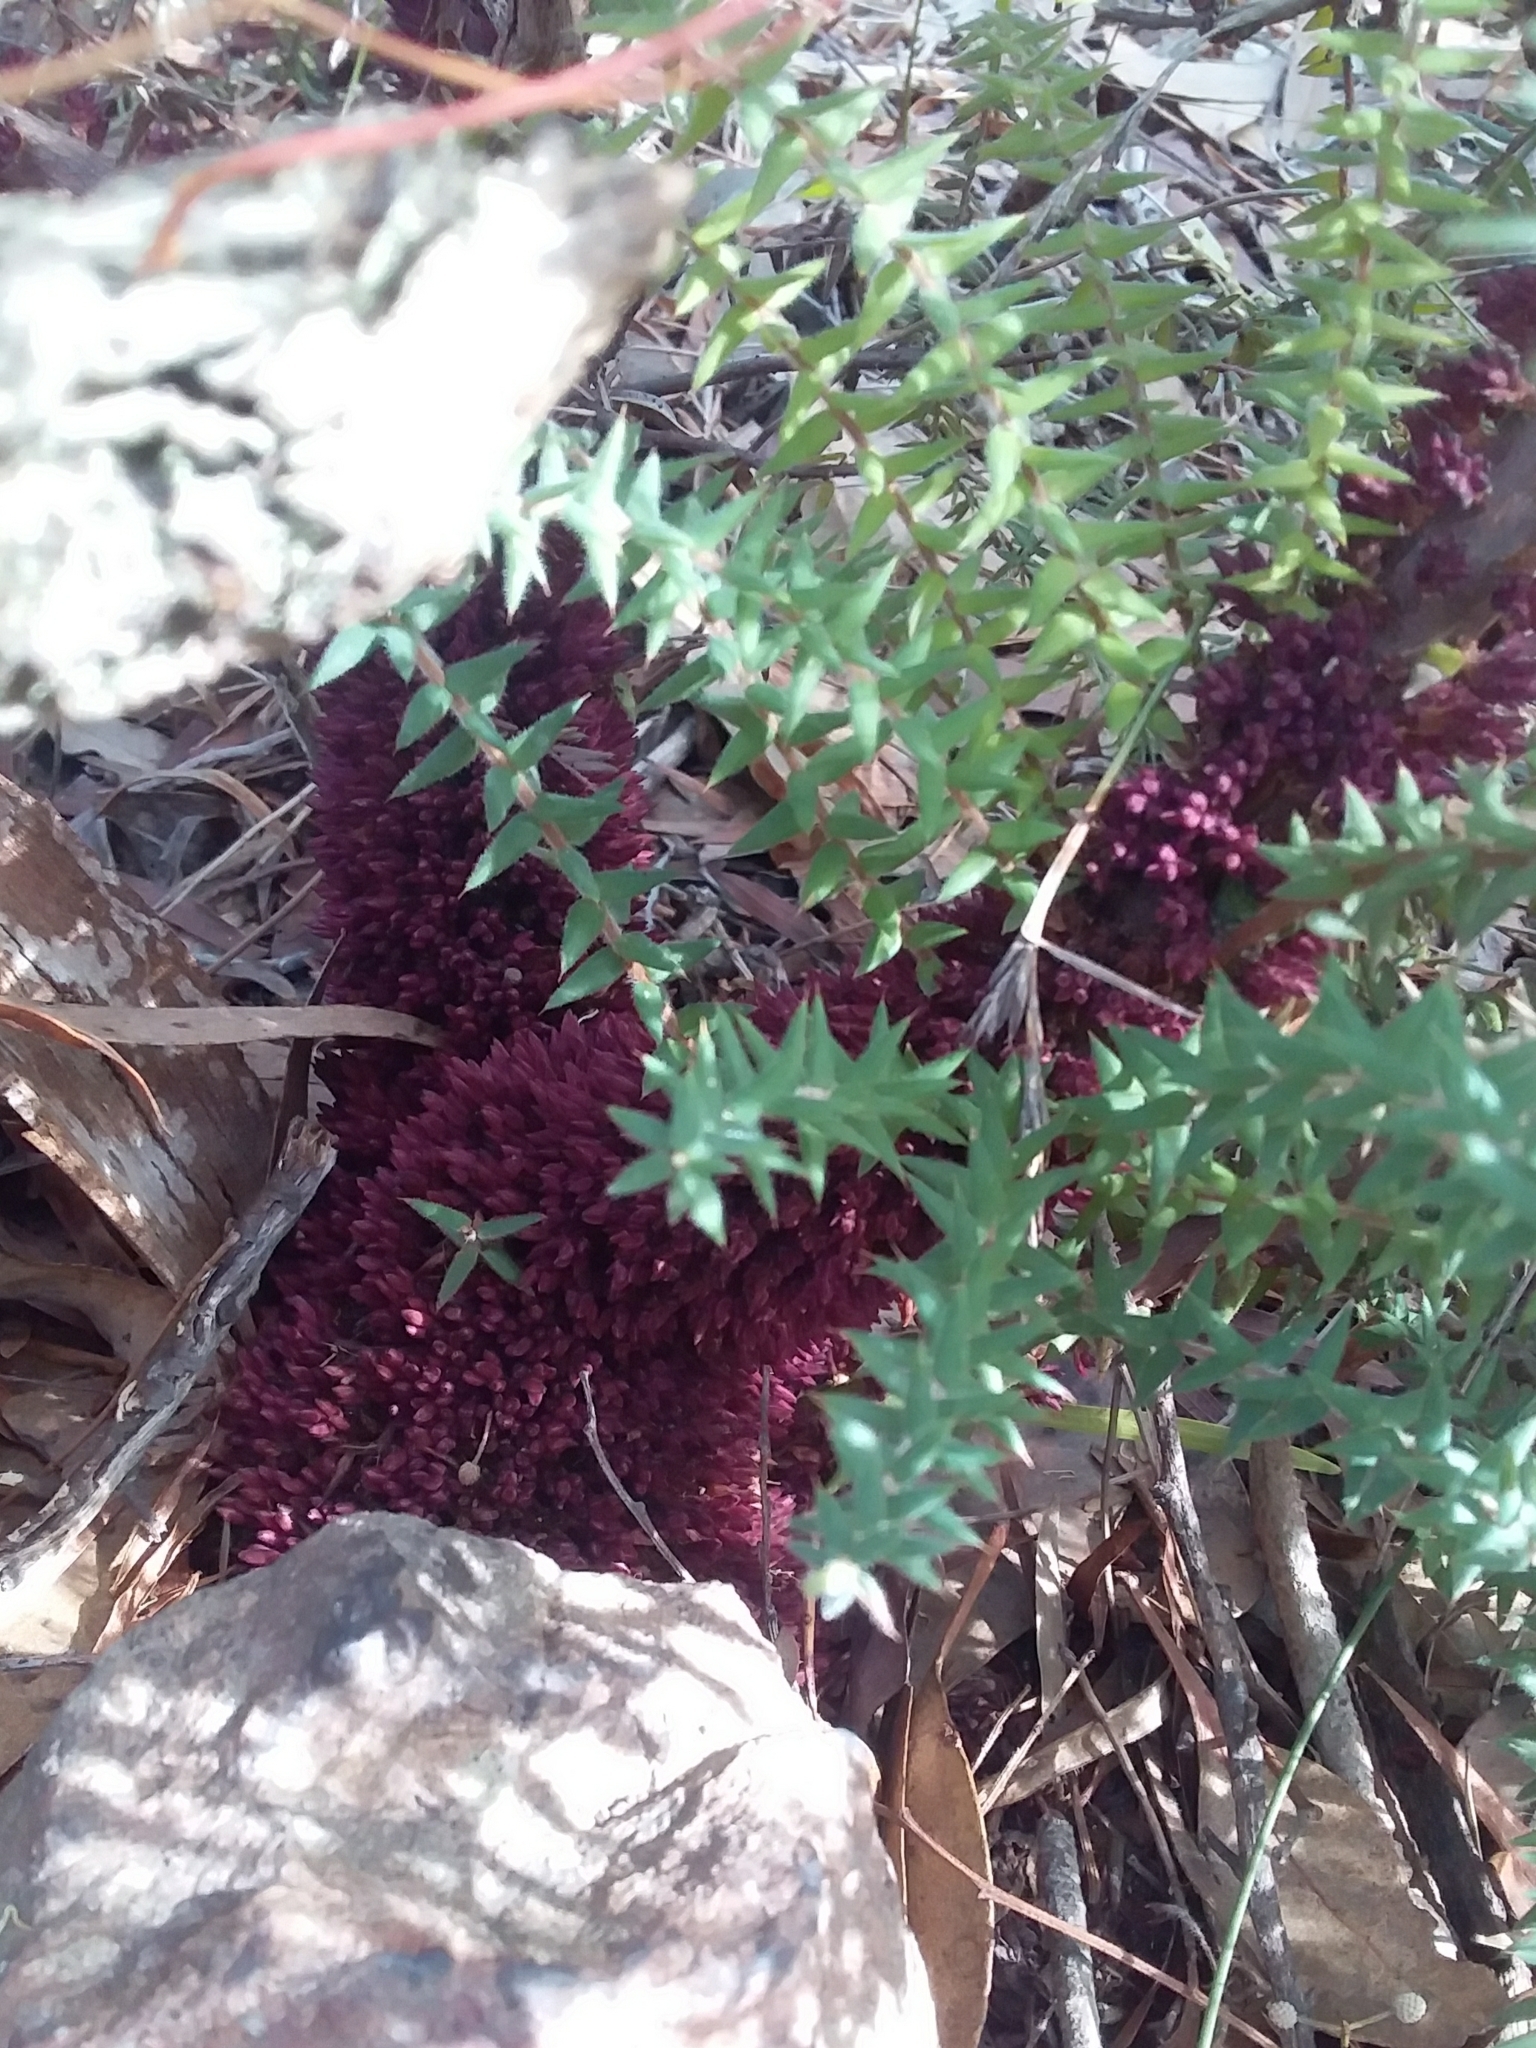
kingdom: Plantae
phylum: Tracheophyta
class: Magnoliopsida
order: Ericales
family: Ericaceae
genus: Acrotriche
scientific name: Acrotriche fasciculiflora
